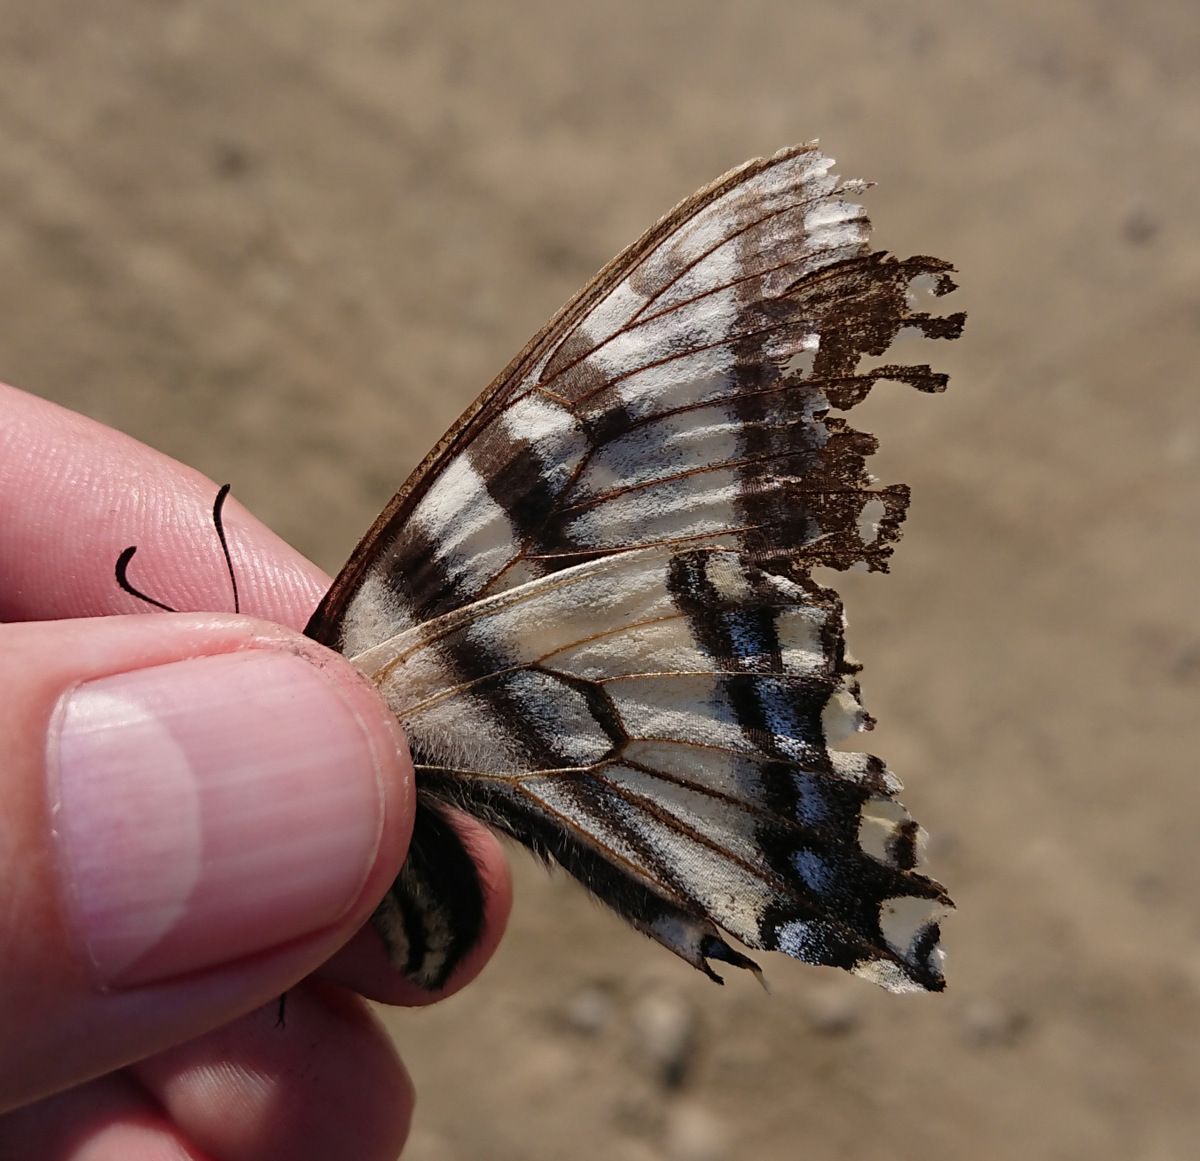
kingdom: Animalia
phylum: Arthropoda
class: Insecta
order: Lepidoptera
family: Papilionidae
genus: Papilio
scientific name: Papilio canadensis
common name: Canadian tiger swallowtail
